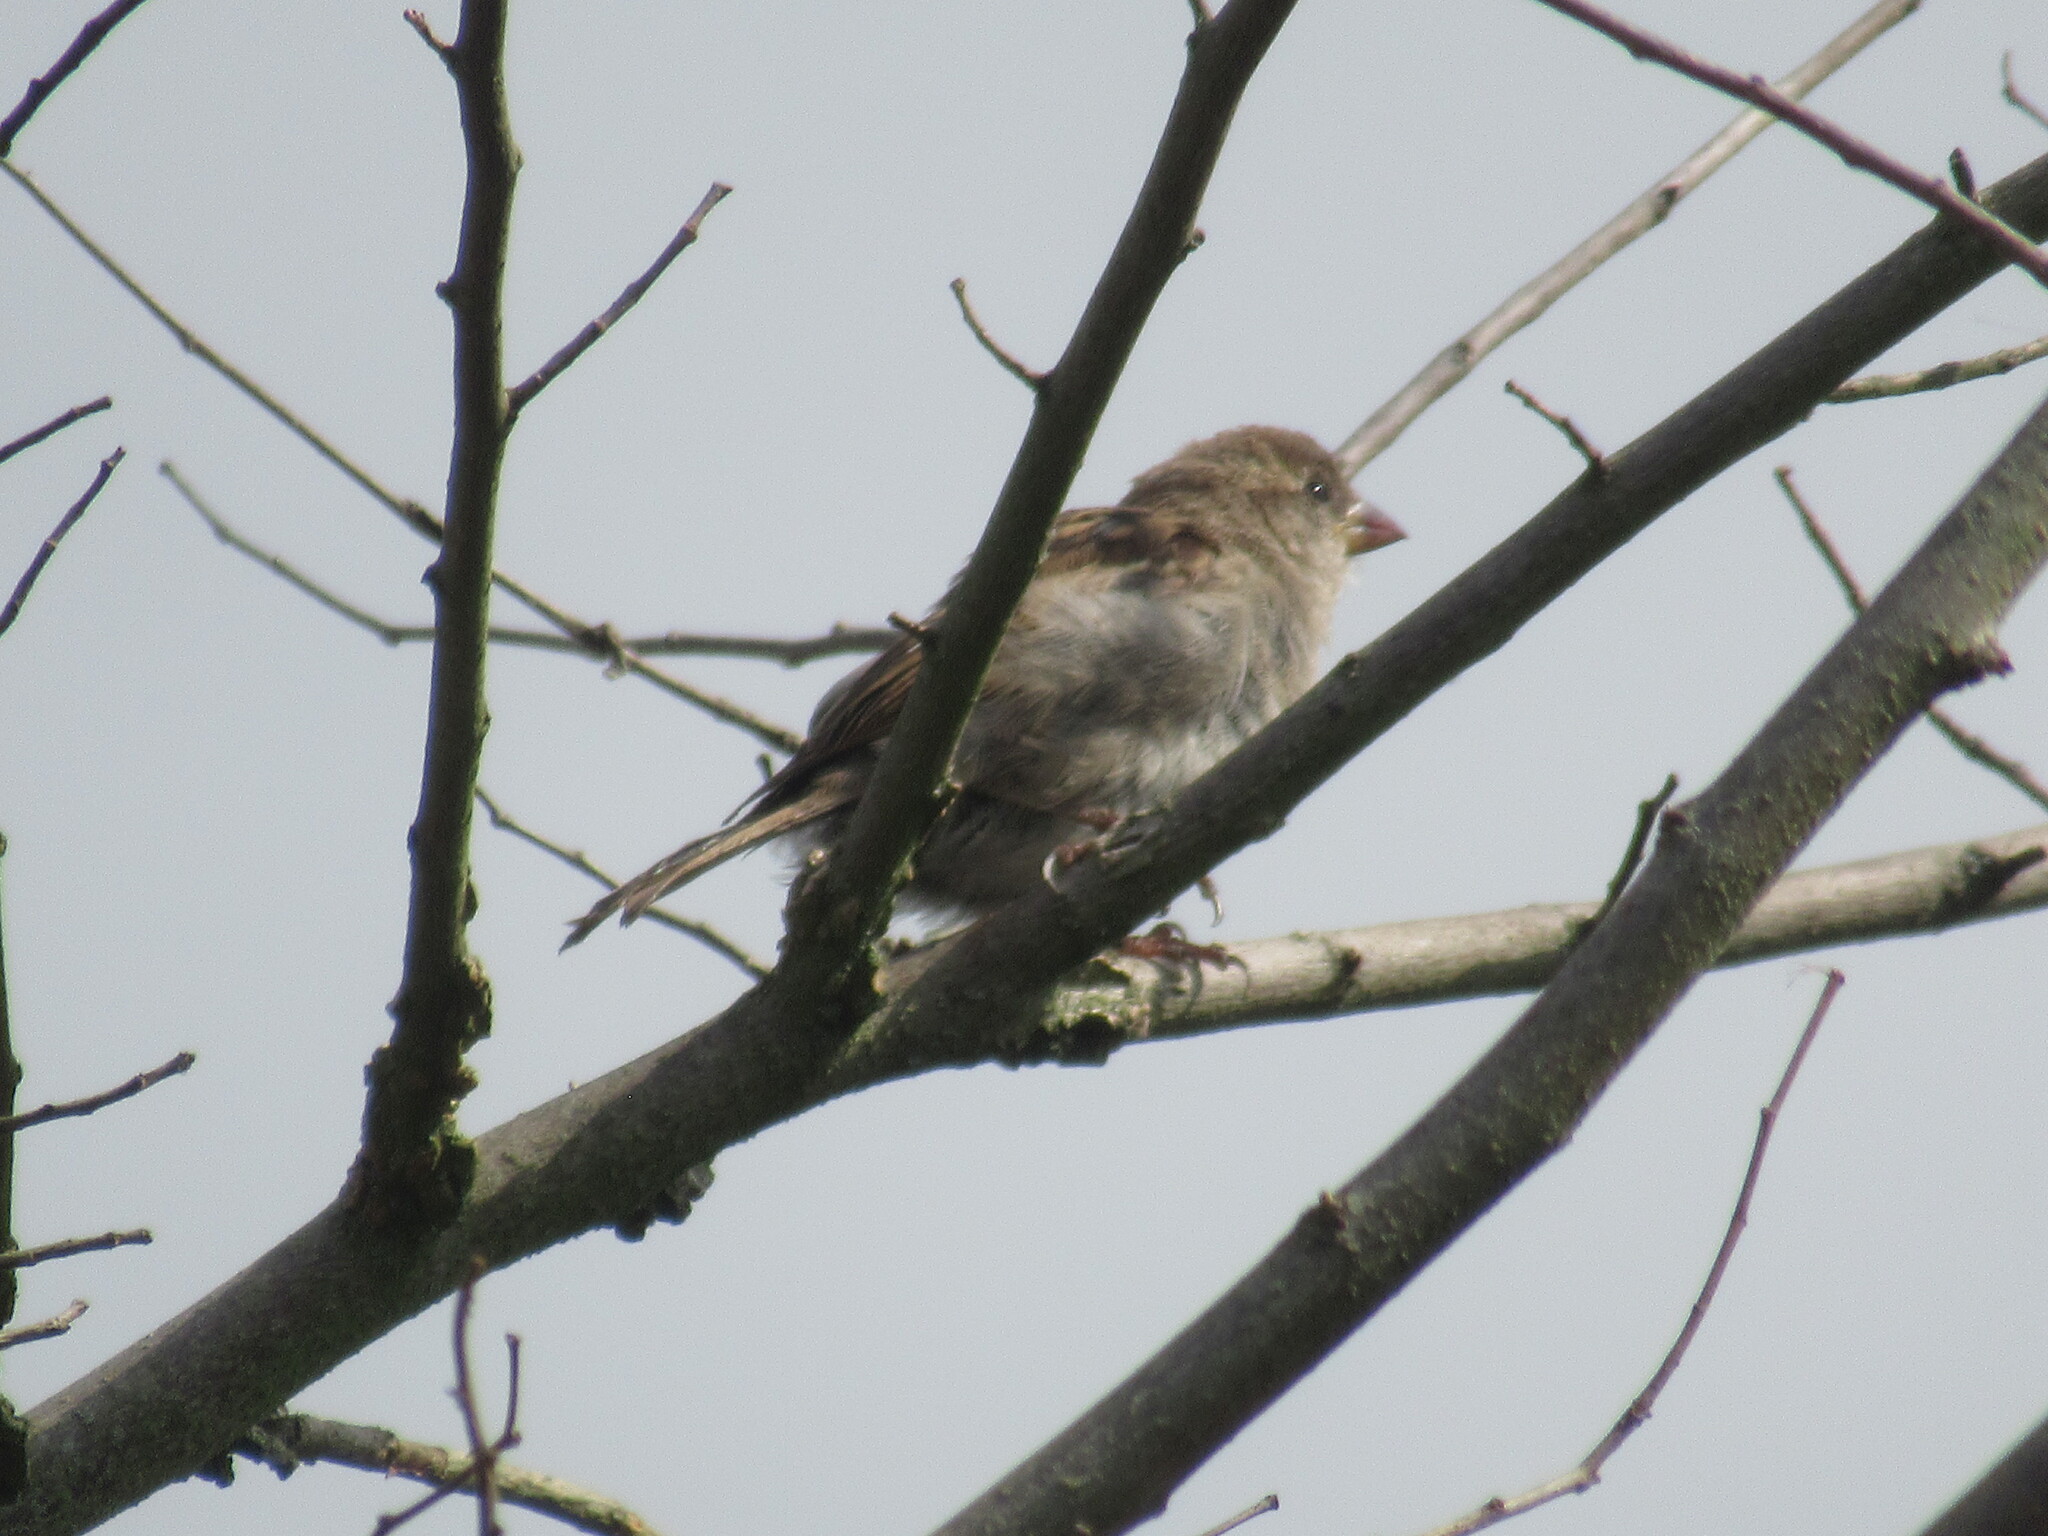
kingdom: Animalia
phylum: Chordata
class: Aves
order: Passeriformes
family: Passeridae
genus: Passer
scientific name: Passer domesticus
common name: House sparrow
